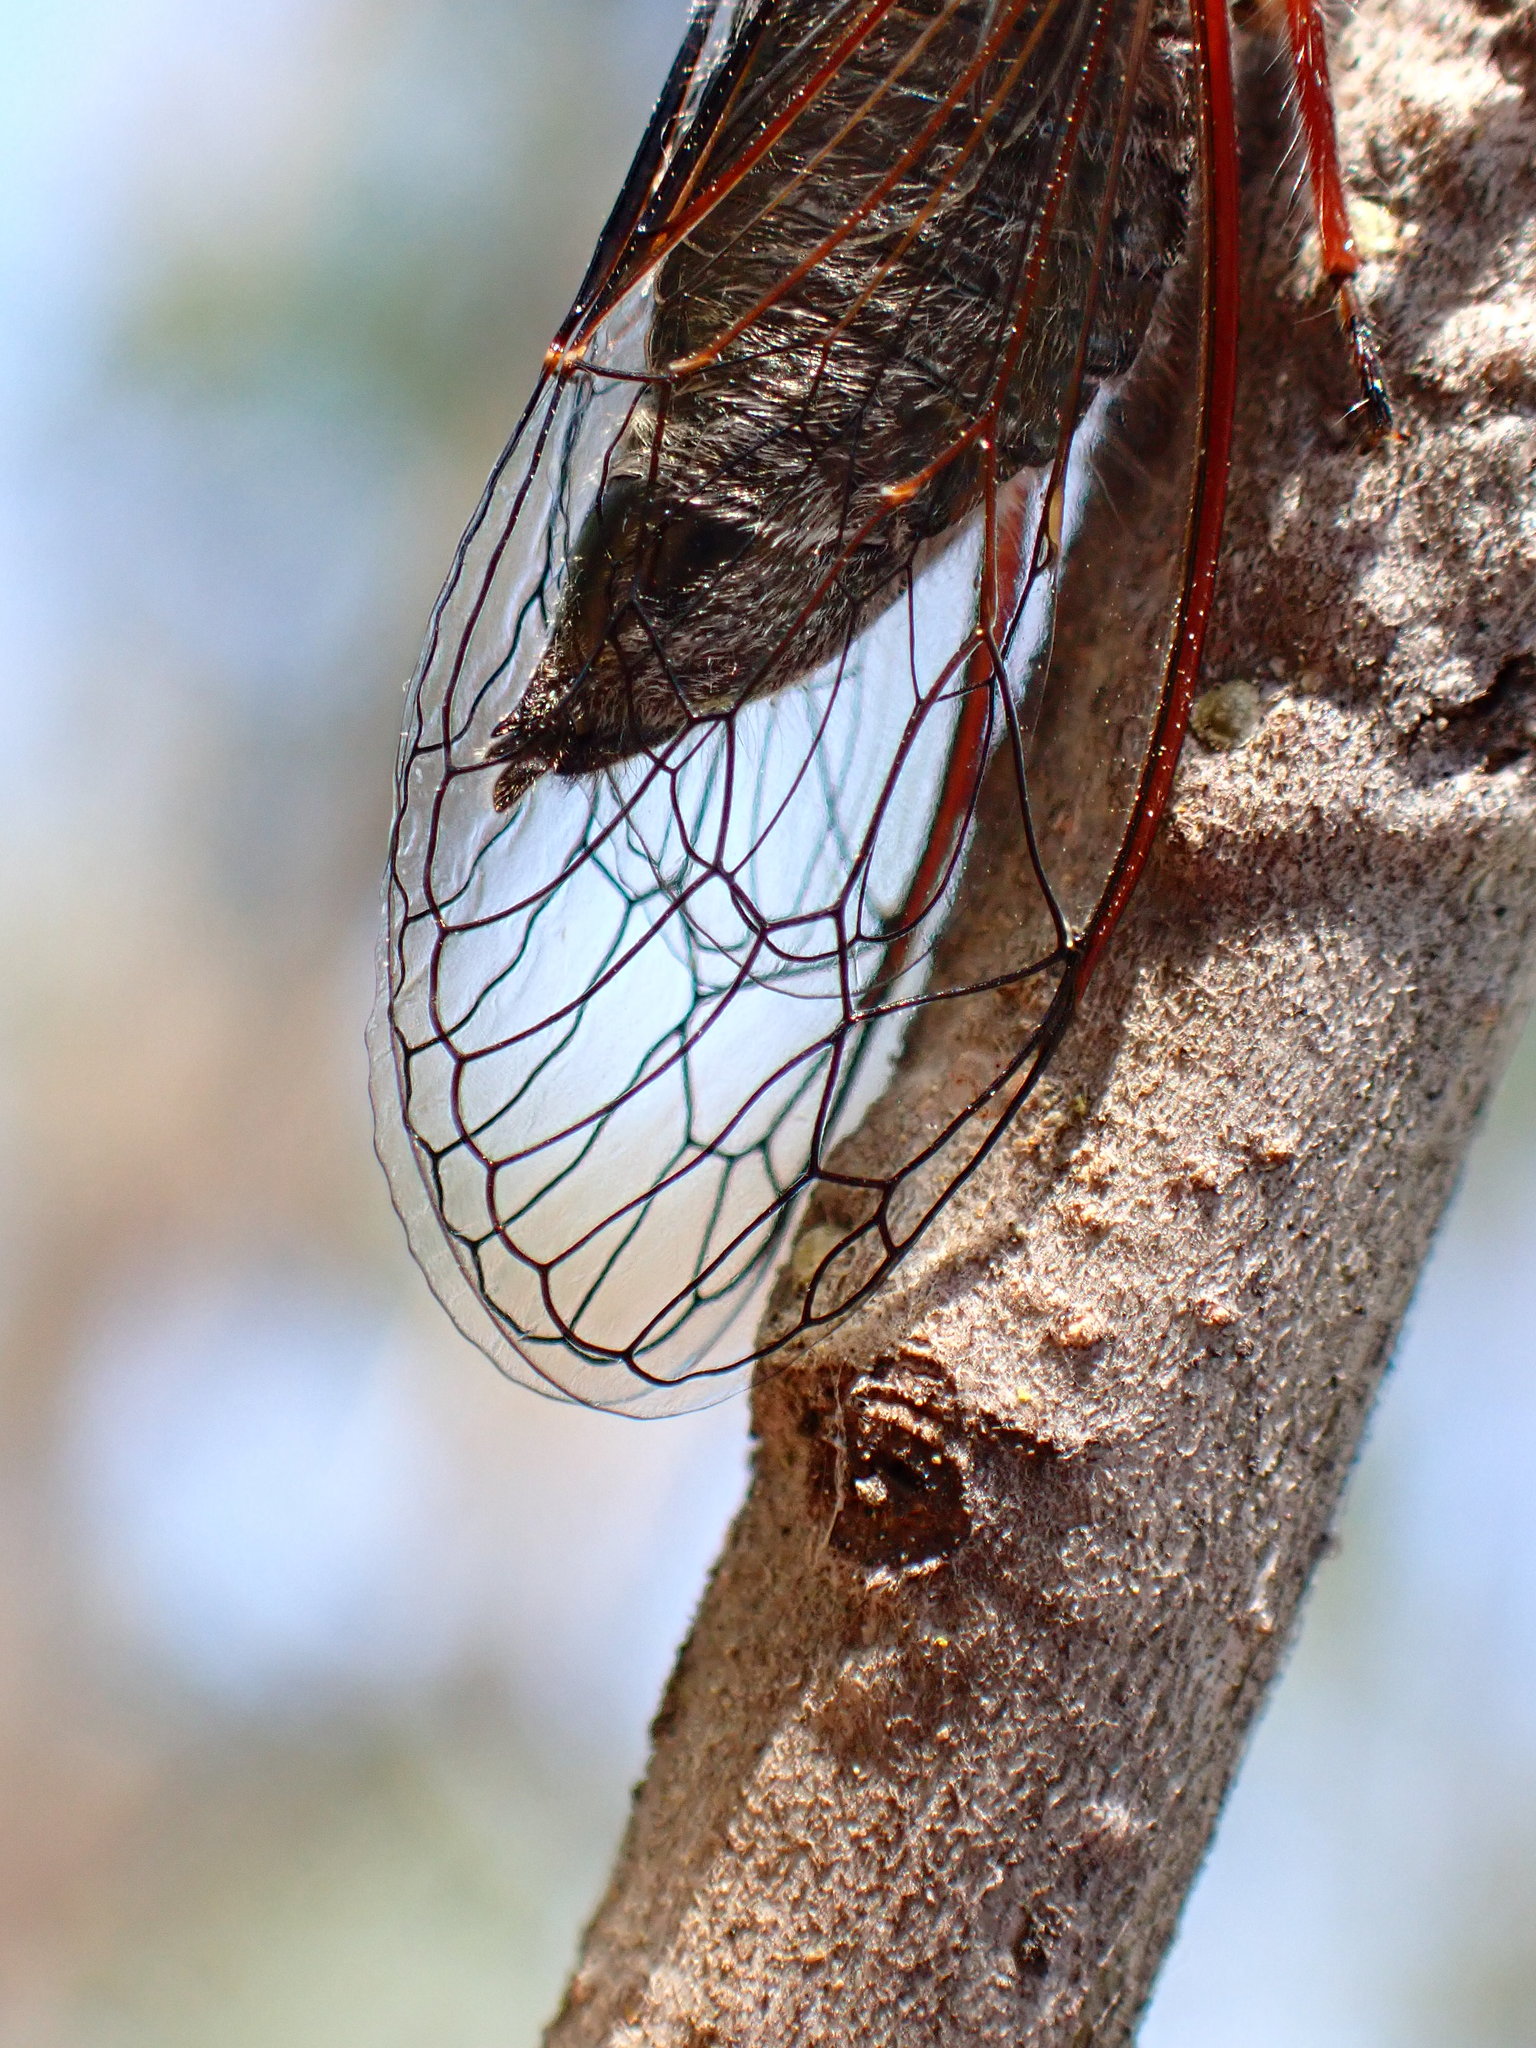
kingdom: Animalia
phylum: Arthropoda
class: Insecta
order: Hemiptera
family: Cicadidae
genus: Platypedia
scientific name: Platypedia minor
